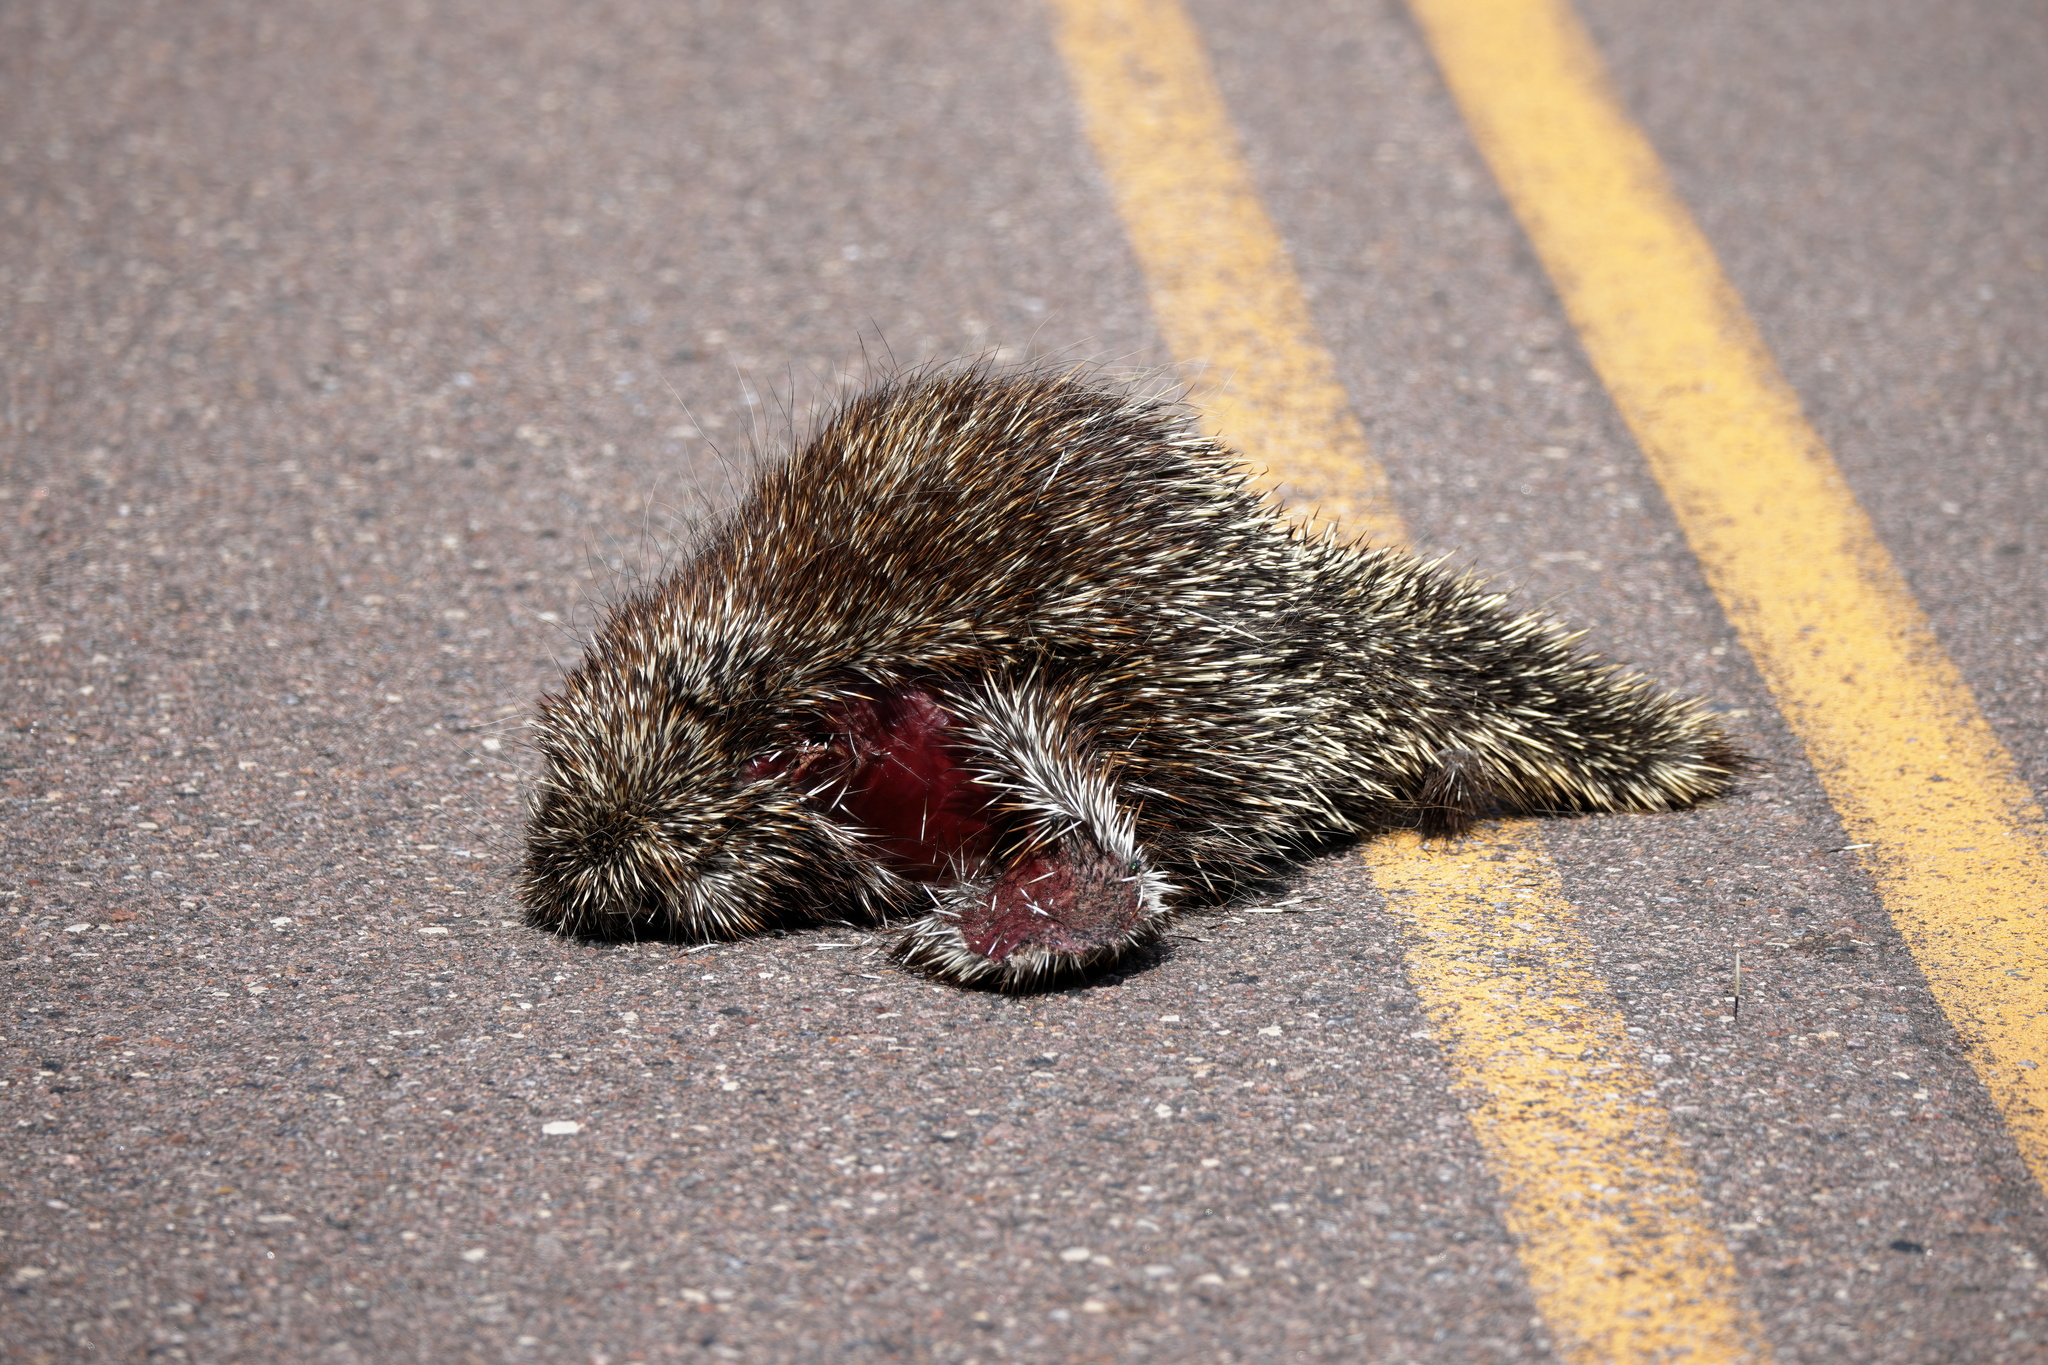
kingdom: Animalia
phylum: Chordata
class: Mammalia
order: Rodentia
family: Erethizontidae
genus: Erethizon
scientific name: Erethizon dorsatus
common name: North american porcupine
